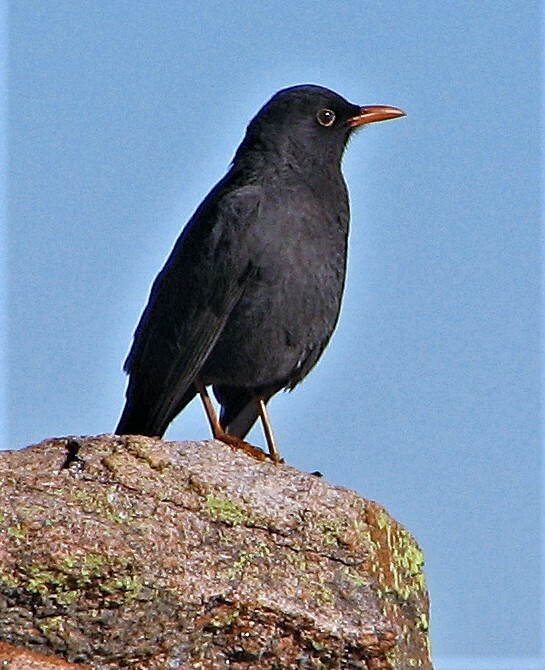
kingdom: Animalia
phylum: Chordata
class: Aves
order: Passeriformes
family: Turdidae
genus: Turdus
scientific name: Turdus chiguanco
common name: Chiguanco thrush
